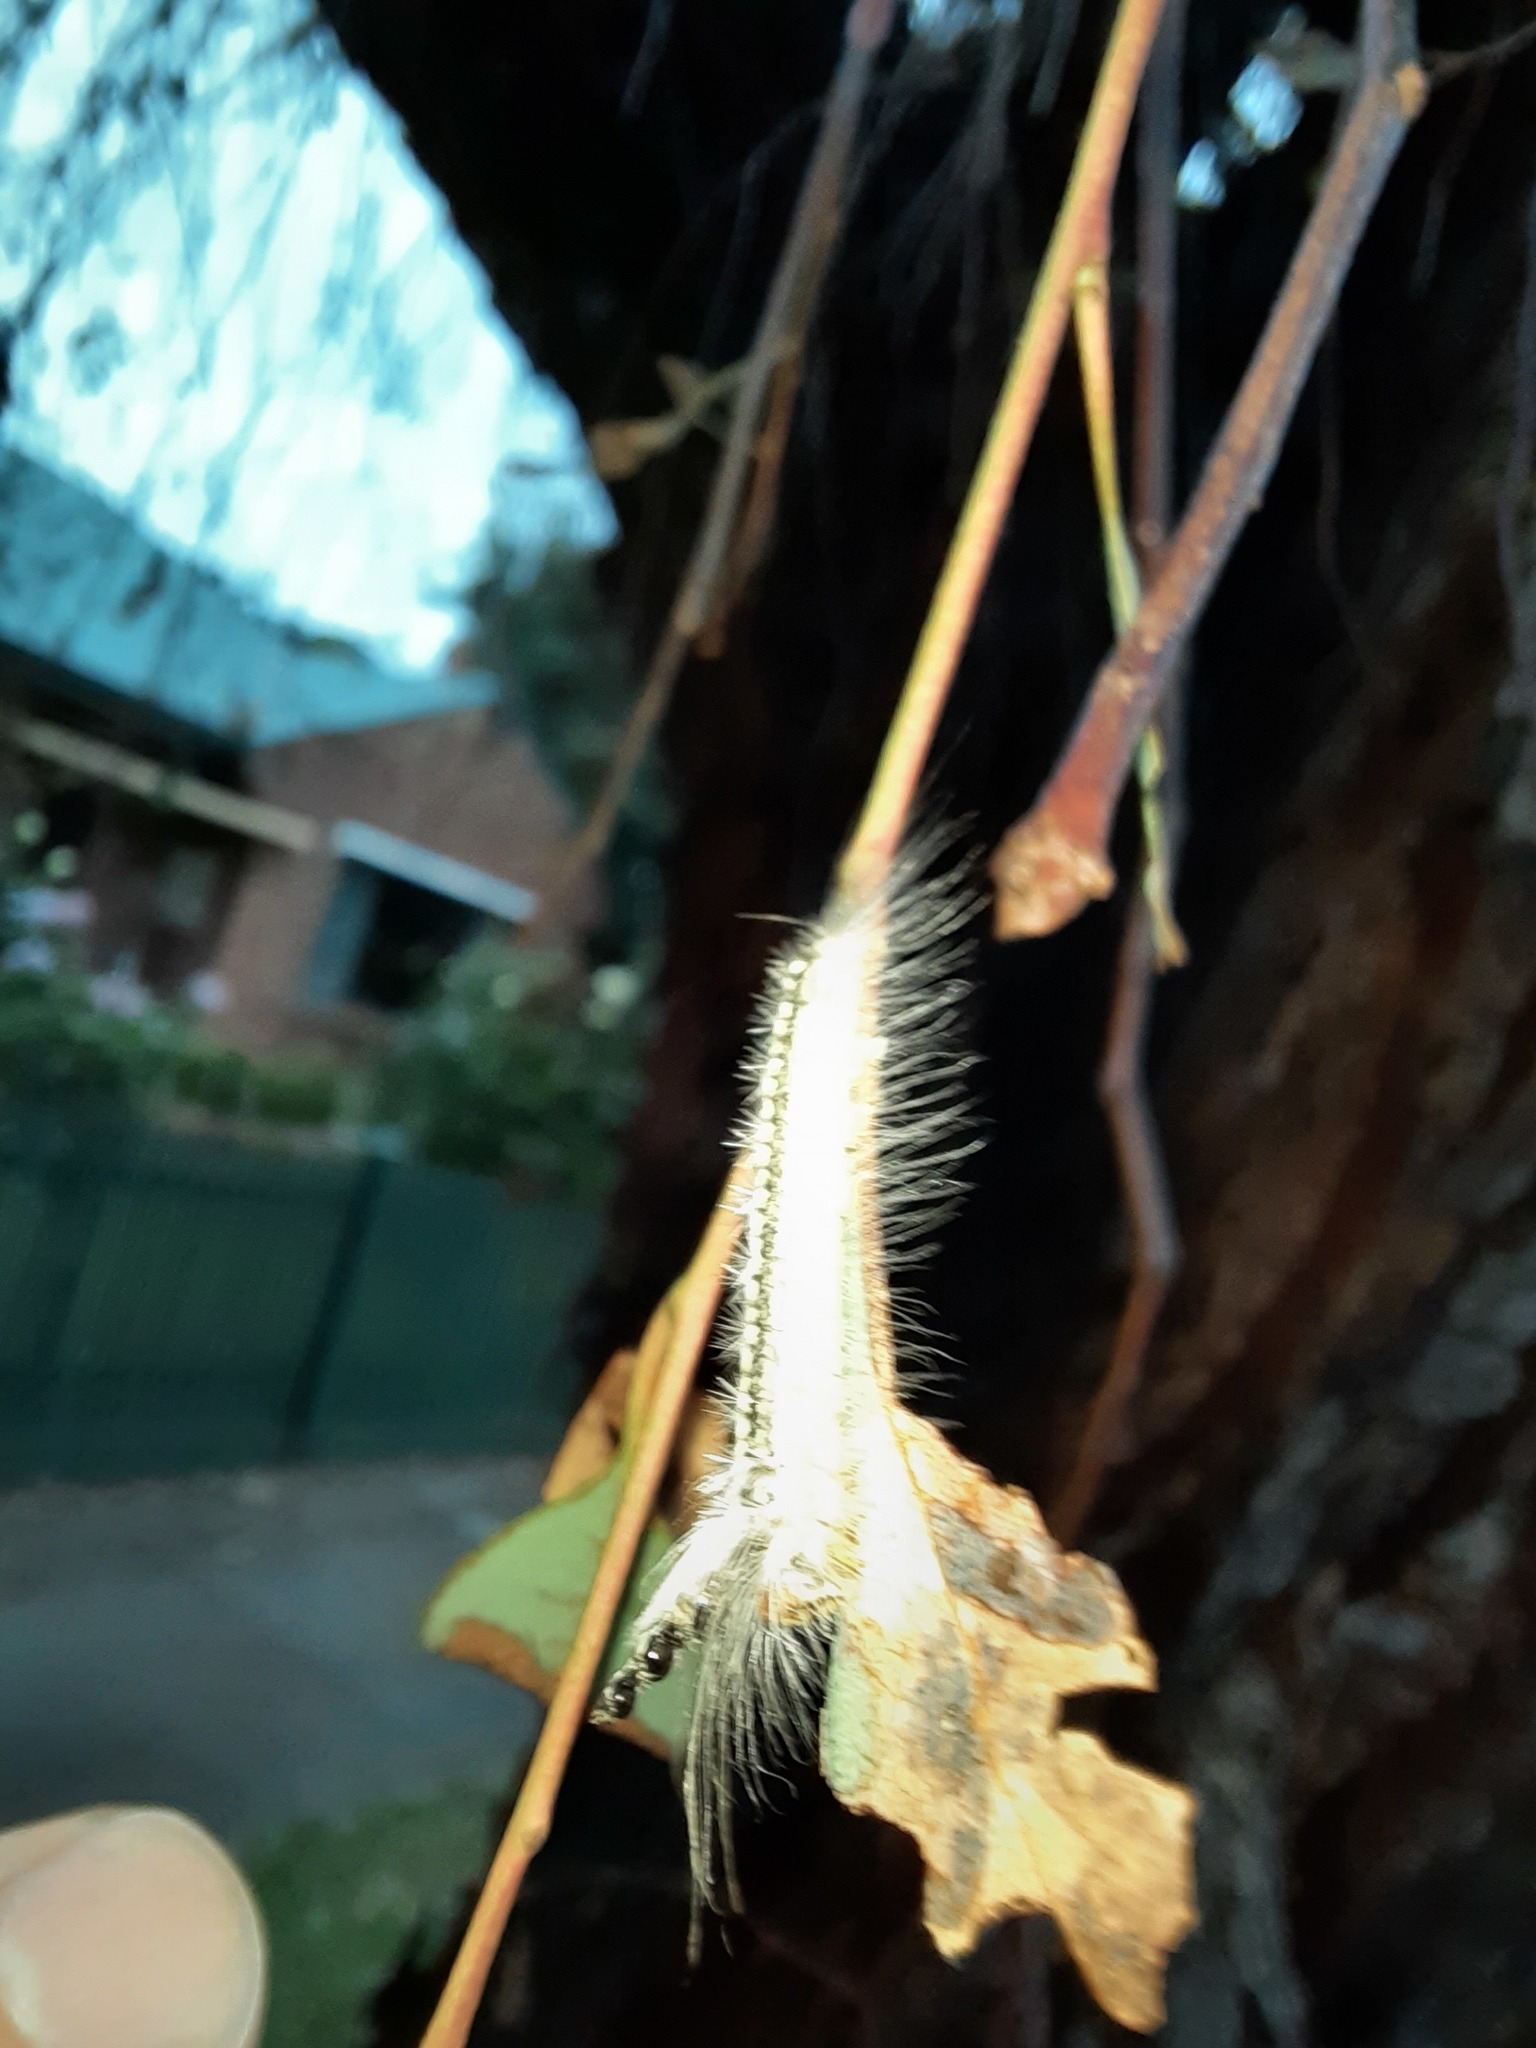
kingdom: Animalia
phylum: Arthropoda
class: Insecta
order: Lepidoptera
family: Nolidae
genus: Uraba
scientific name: Uraba lugens
